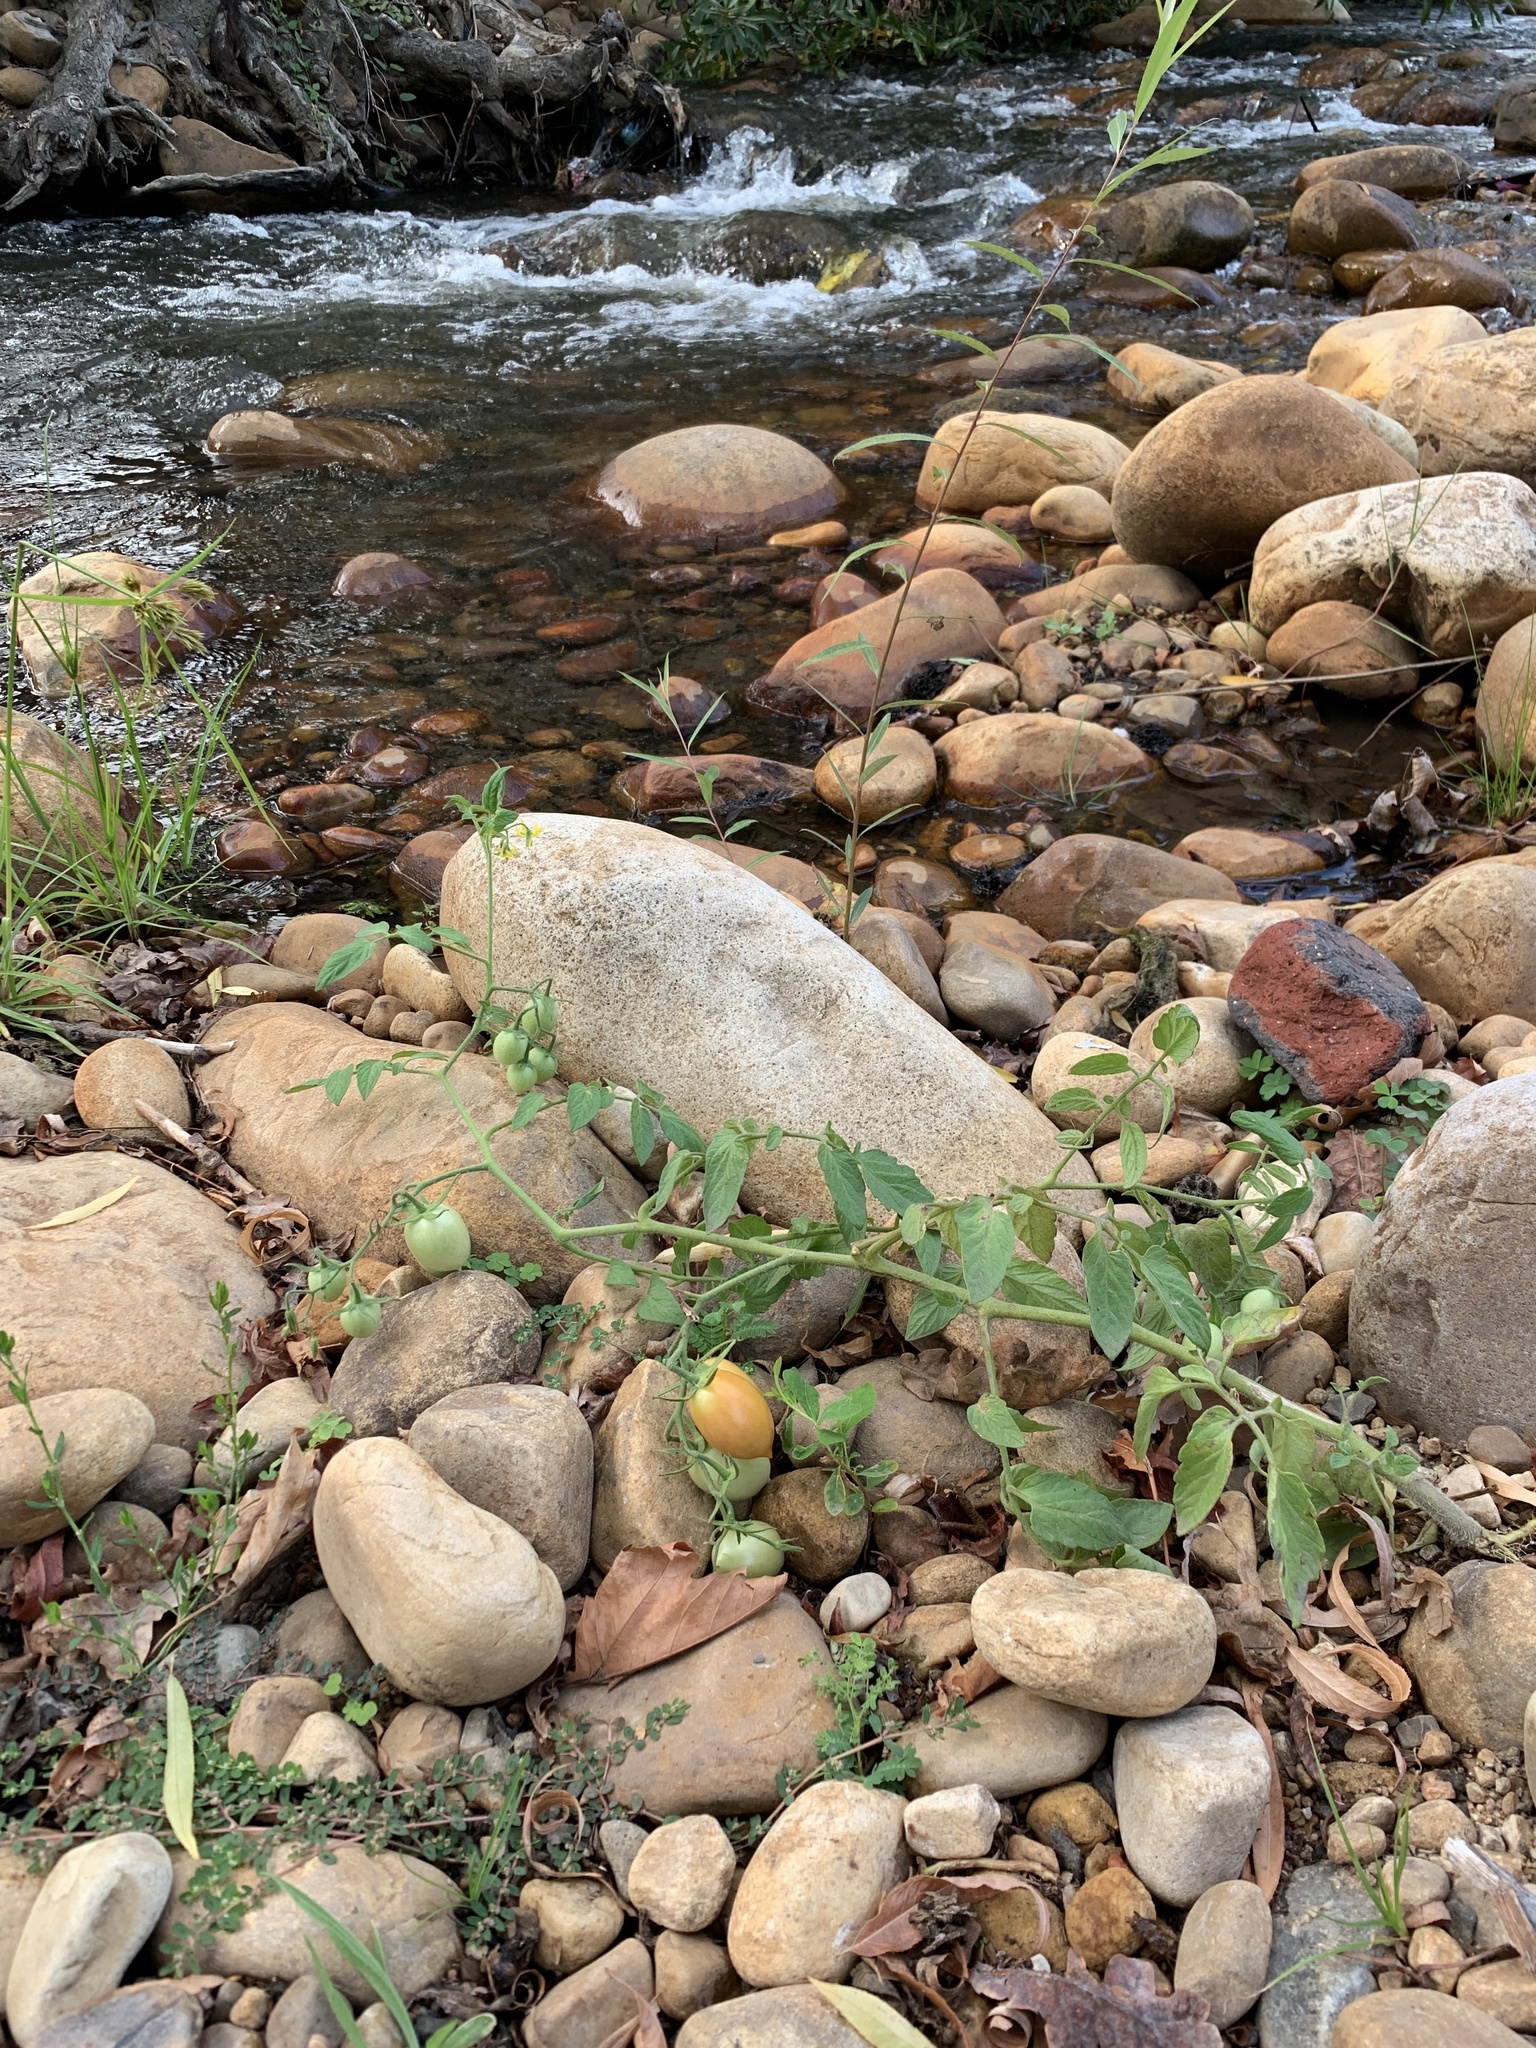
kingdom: Plantae
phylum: Tracheophyta
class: Magnoliopsida
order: Solanales
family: Solanaceae
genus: Solanum
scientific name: Solanum lycopersicum
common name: Garden tomato
